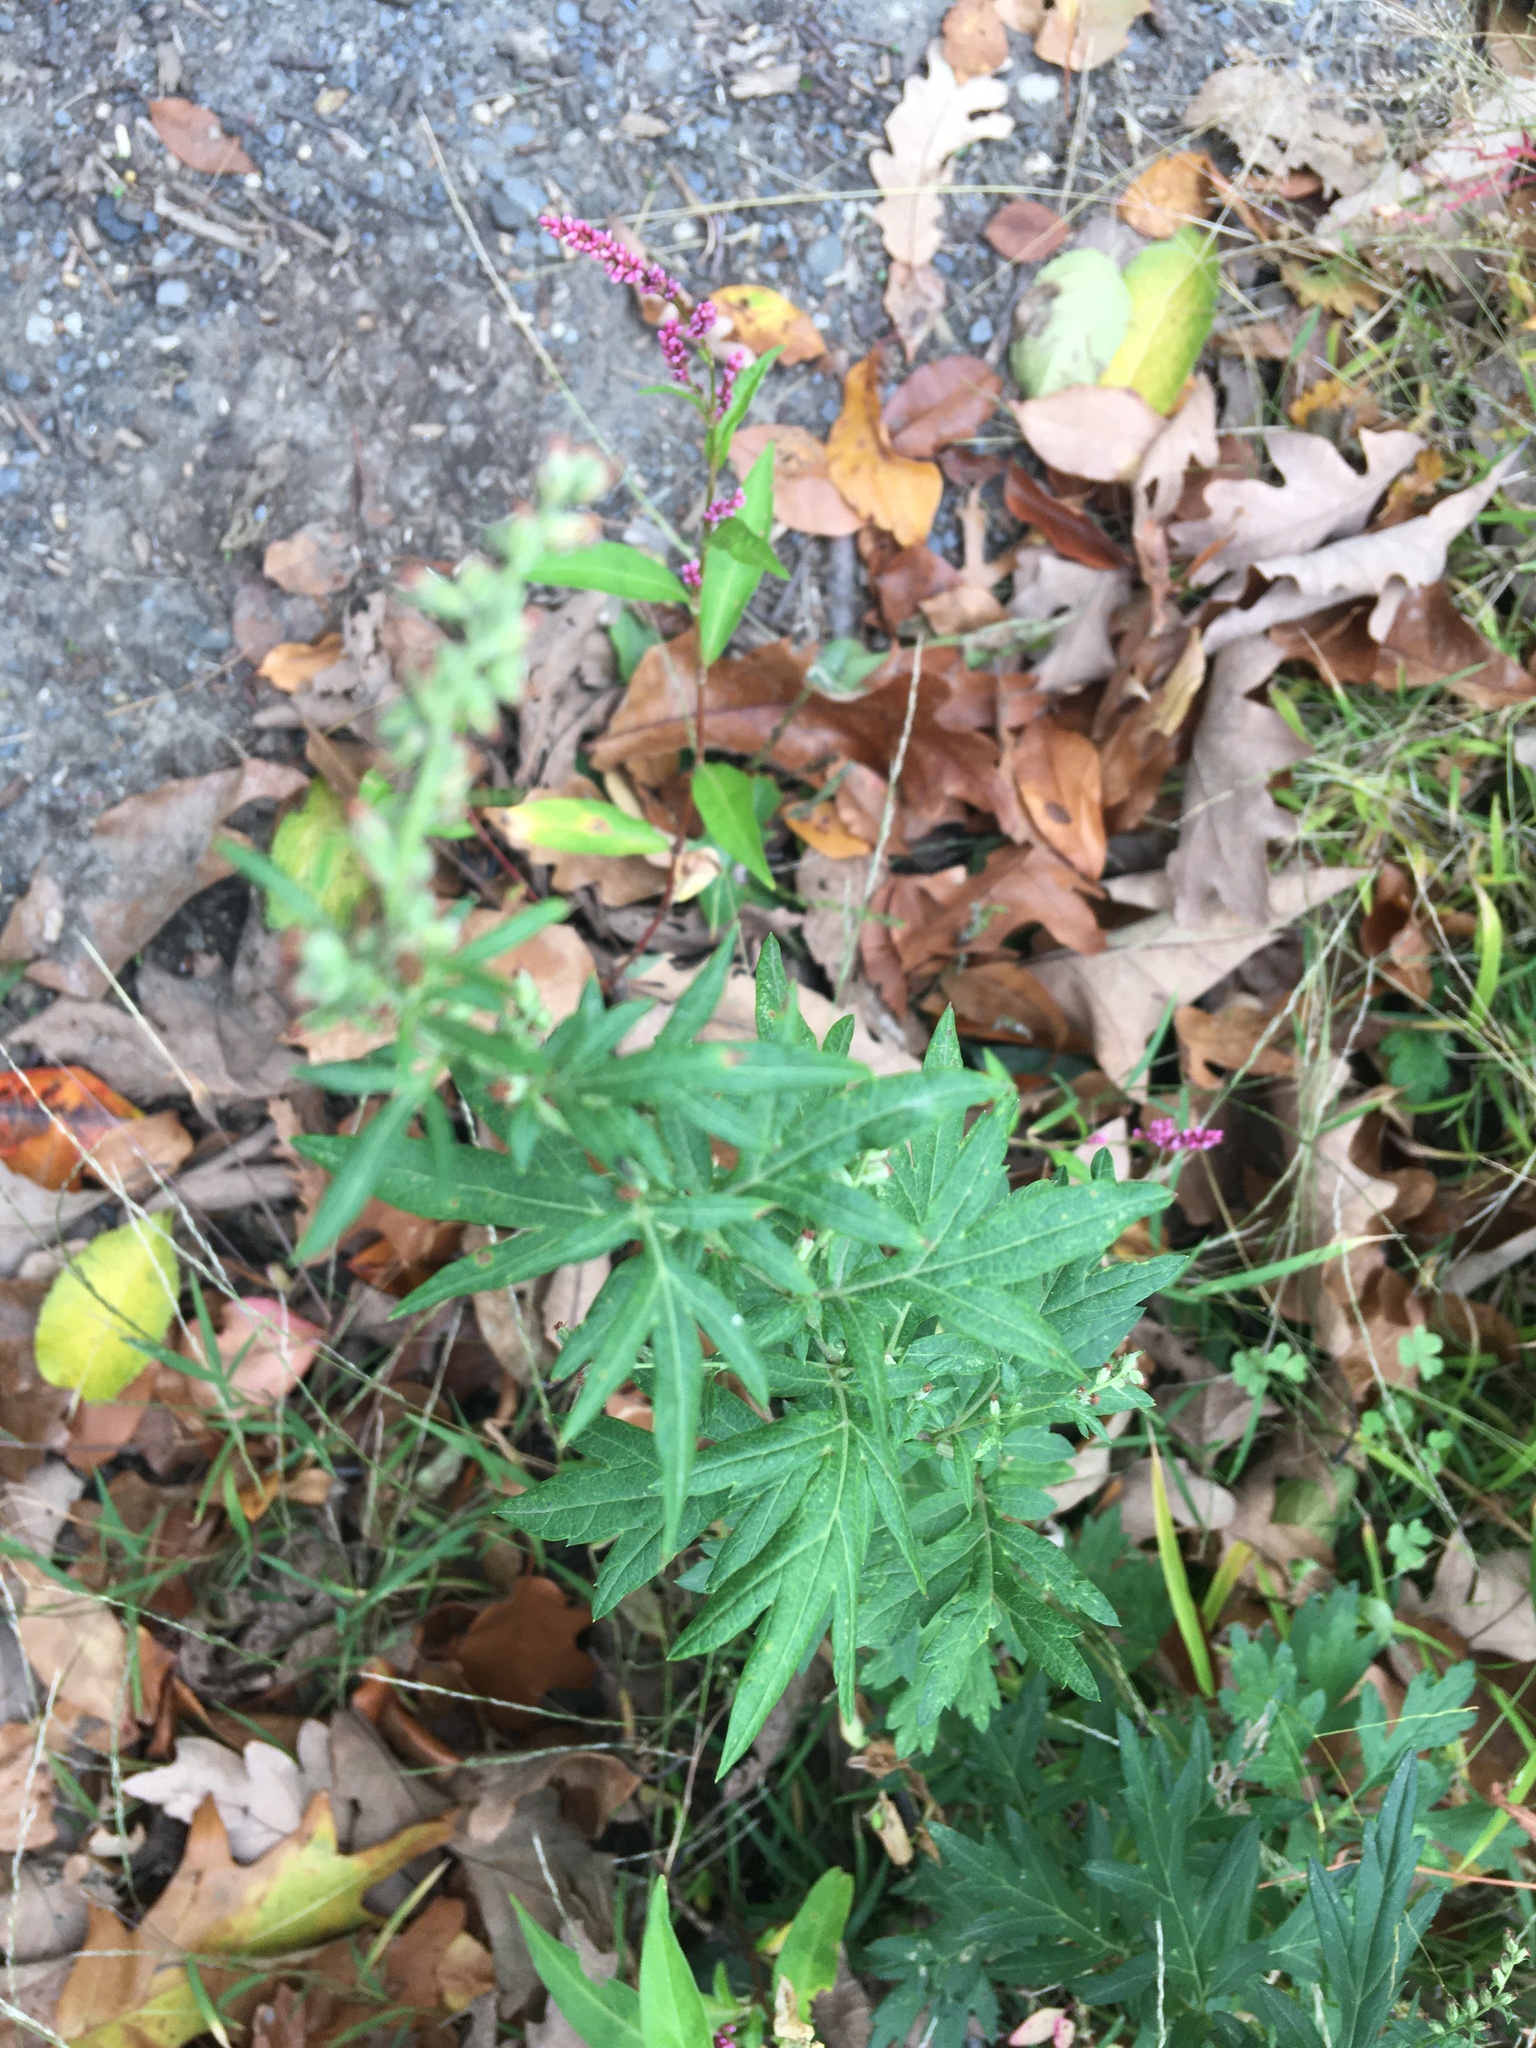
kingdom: Plantae
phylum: Tracheophyta
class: Magnoliopsida
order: Asterales
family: Asteraceae
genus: Artemisia
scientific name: Artemisia vulgaris
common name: Mugwort
